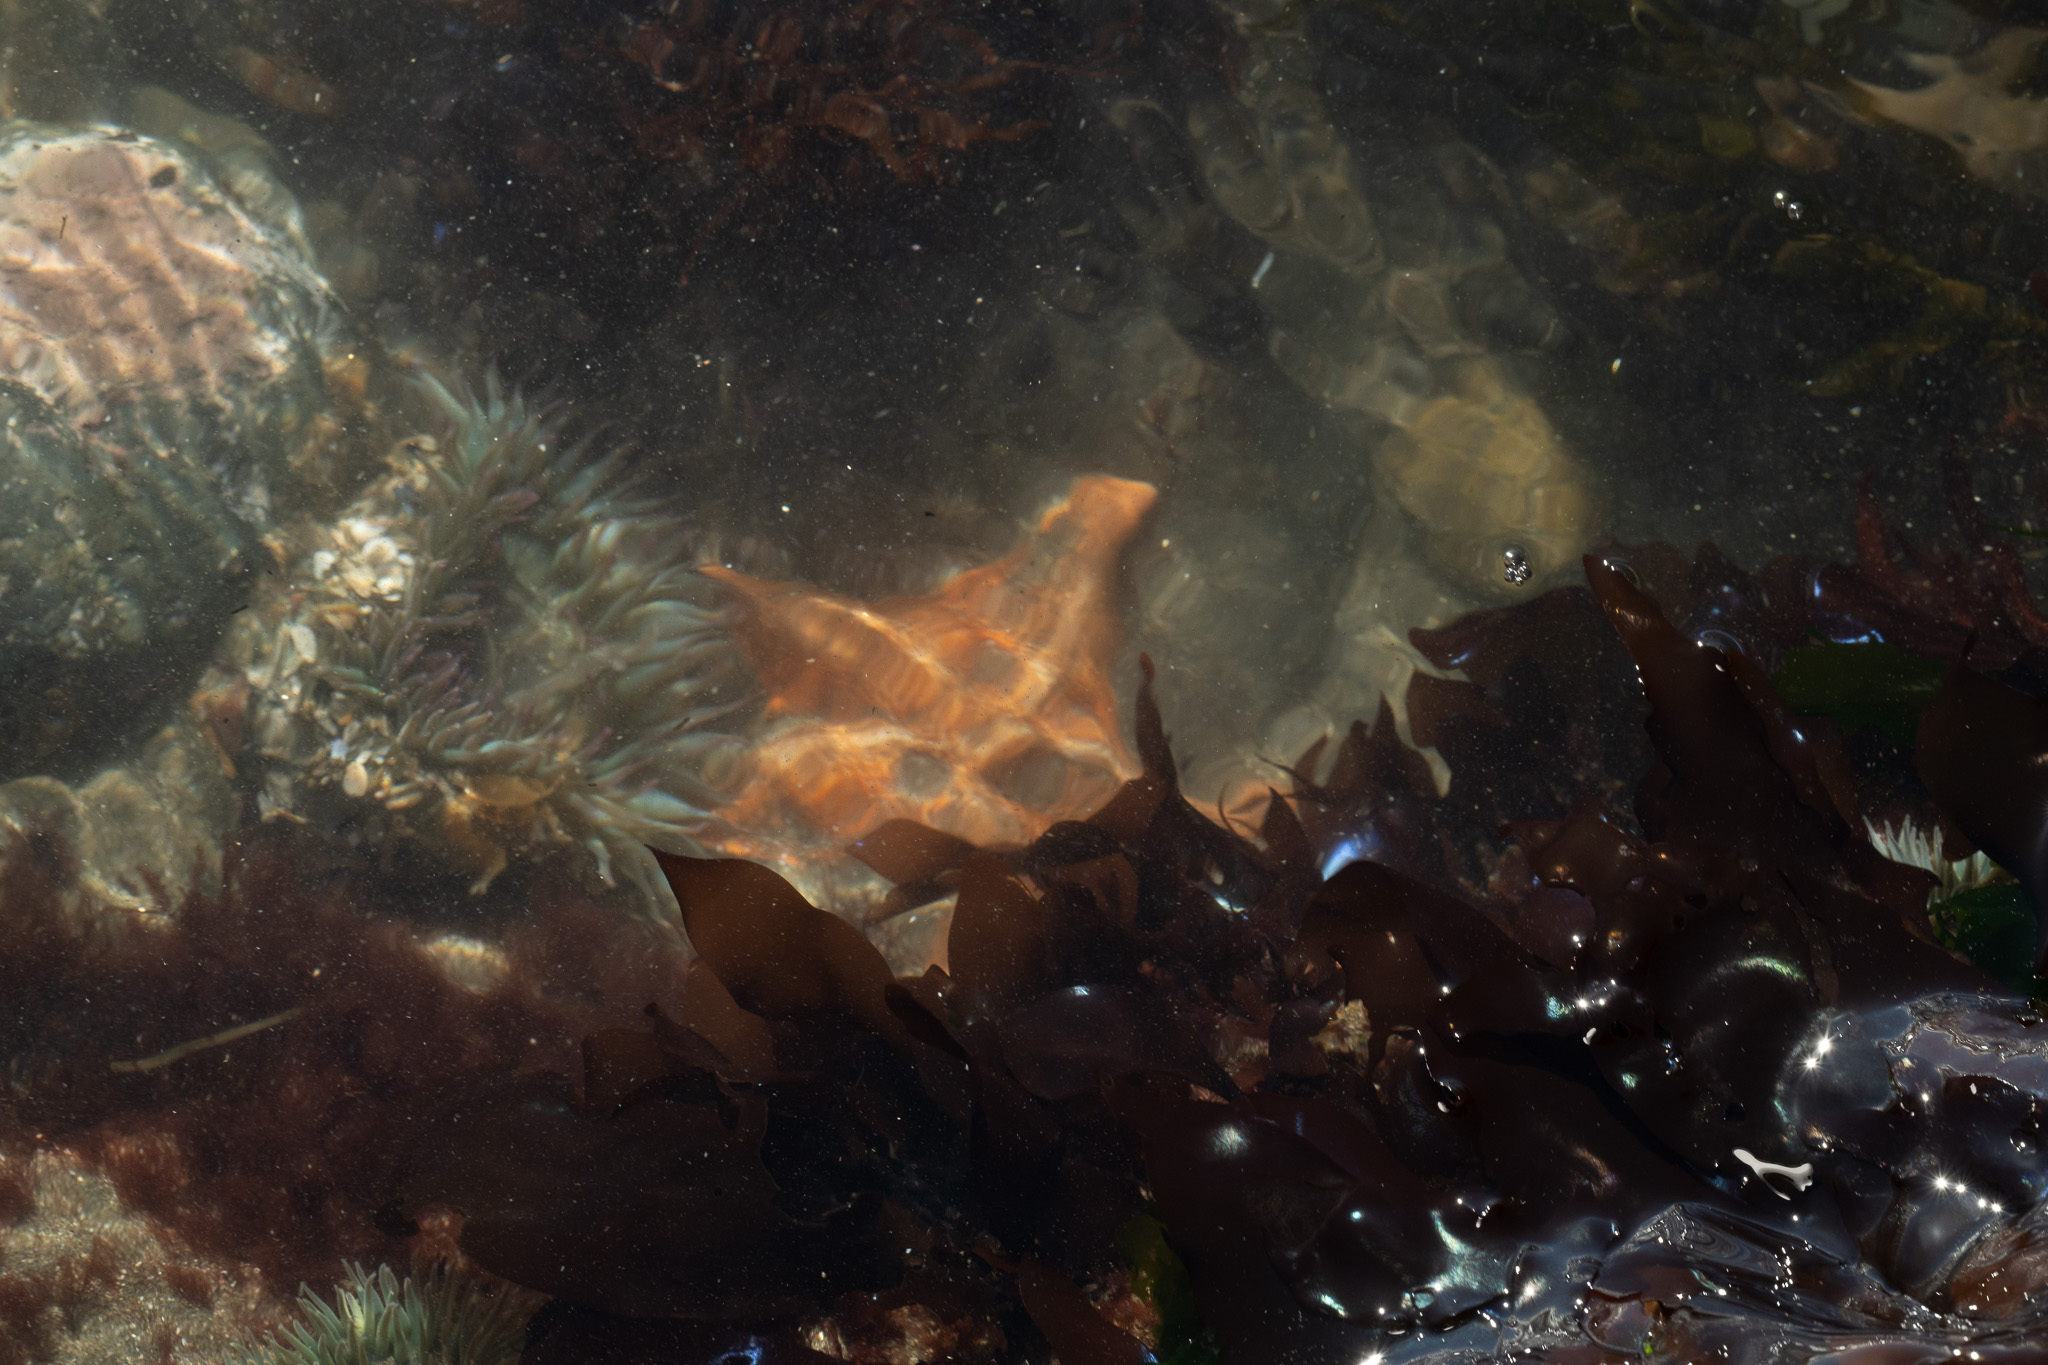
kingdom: Animalia
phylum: Echinodermata
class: Asteroidea
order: Valvatida
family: Asterinidae
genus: Patiria
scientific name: Patiria miniata
